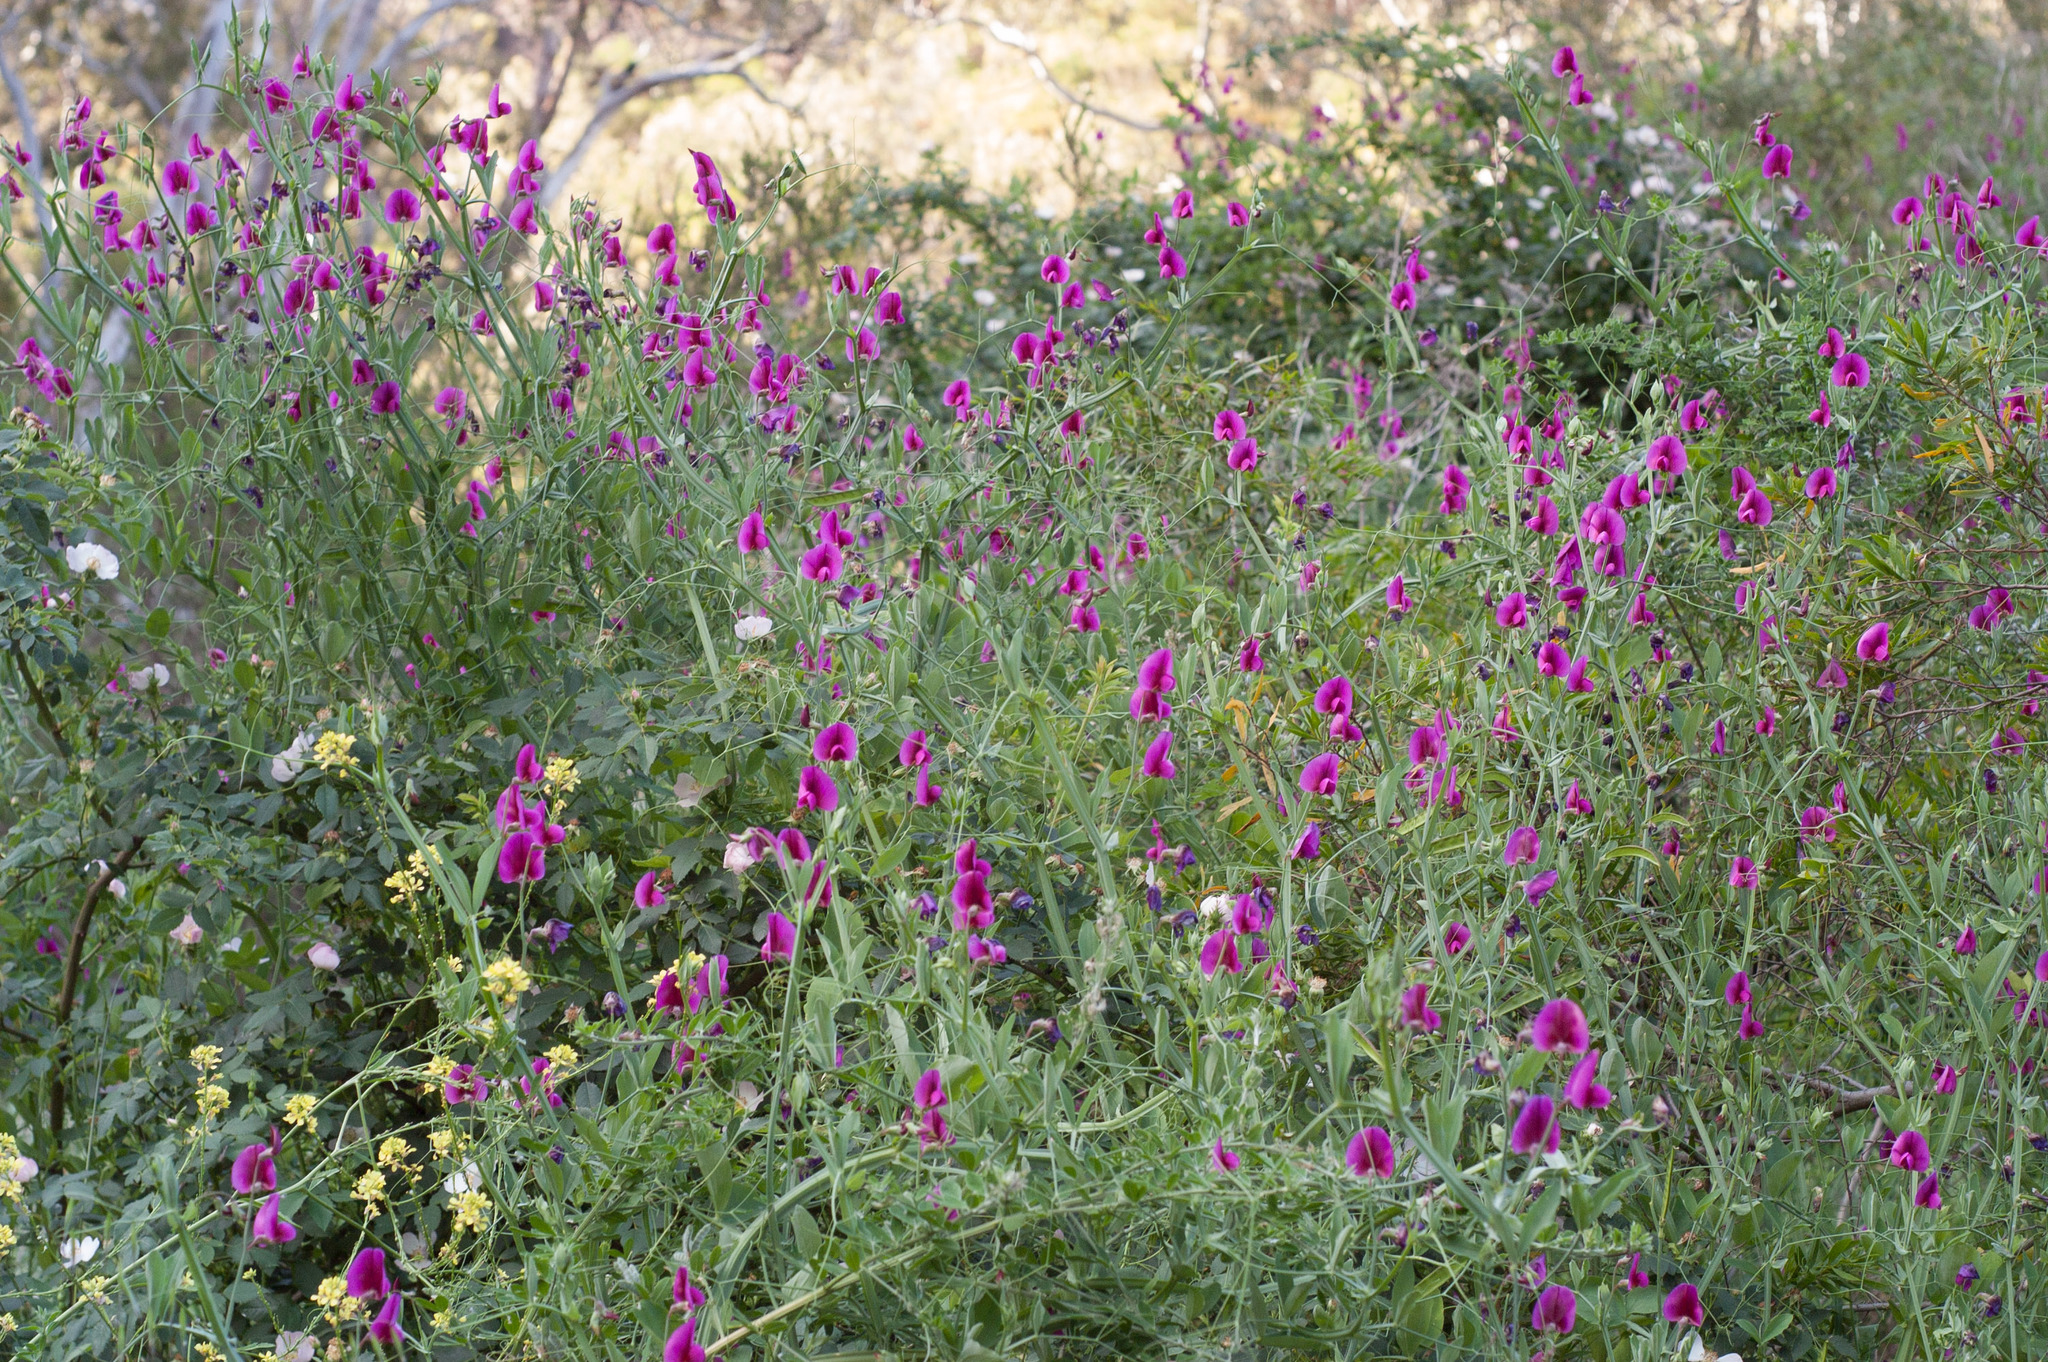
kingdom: Plantae
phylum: Tracheophyta
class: Magnoliopsida
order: Fabales
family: Fabaceae
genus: Lathyrus
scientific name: Lathyrus tingitanus
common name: Tangier pea
